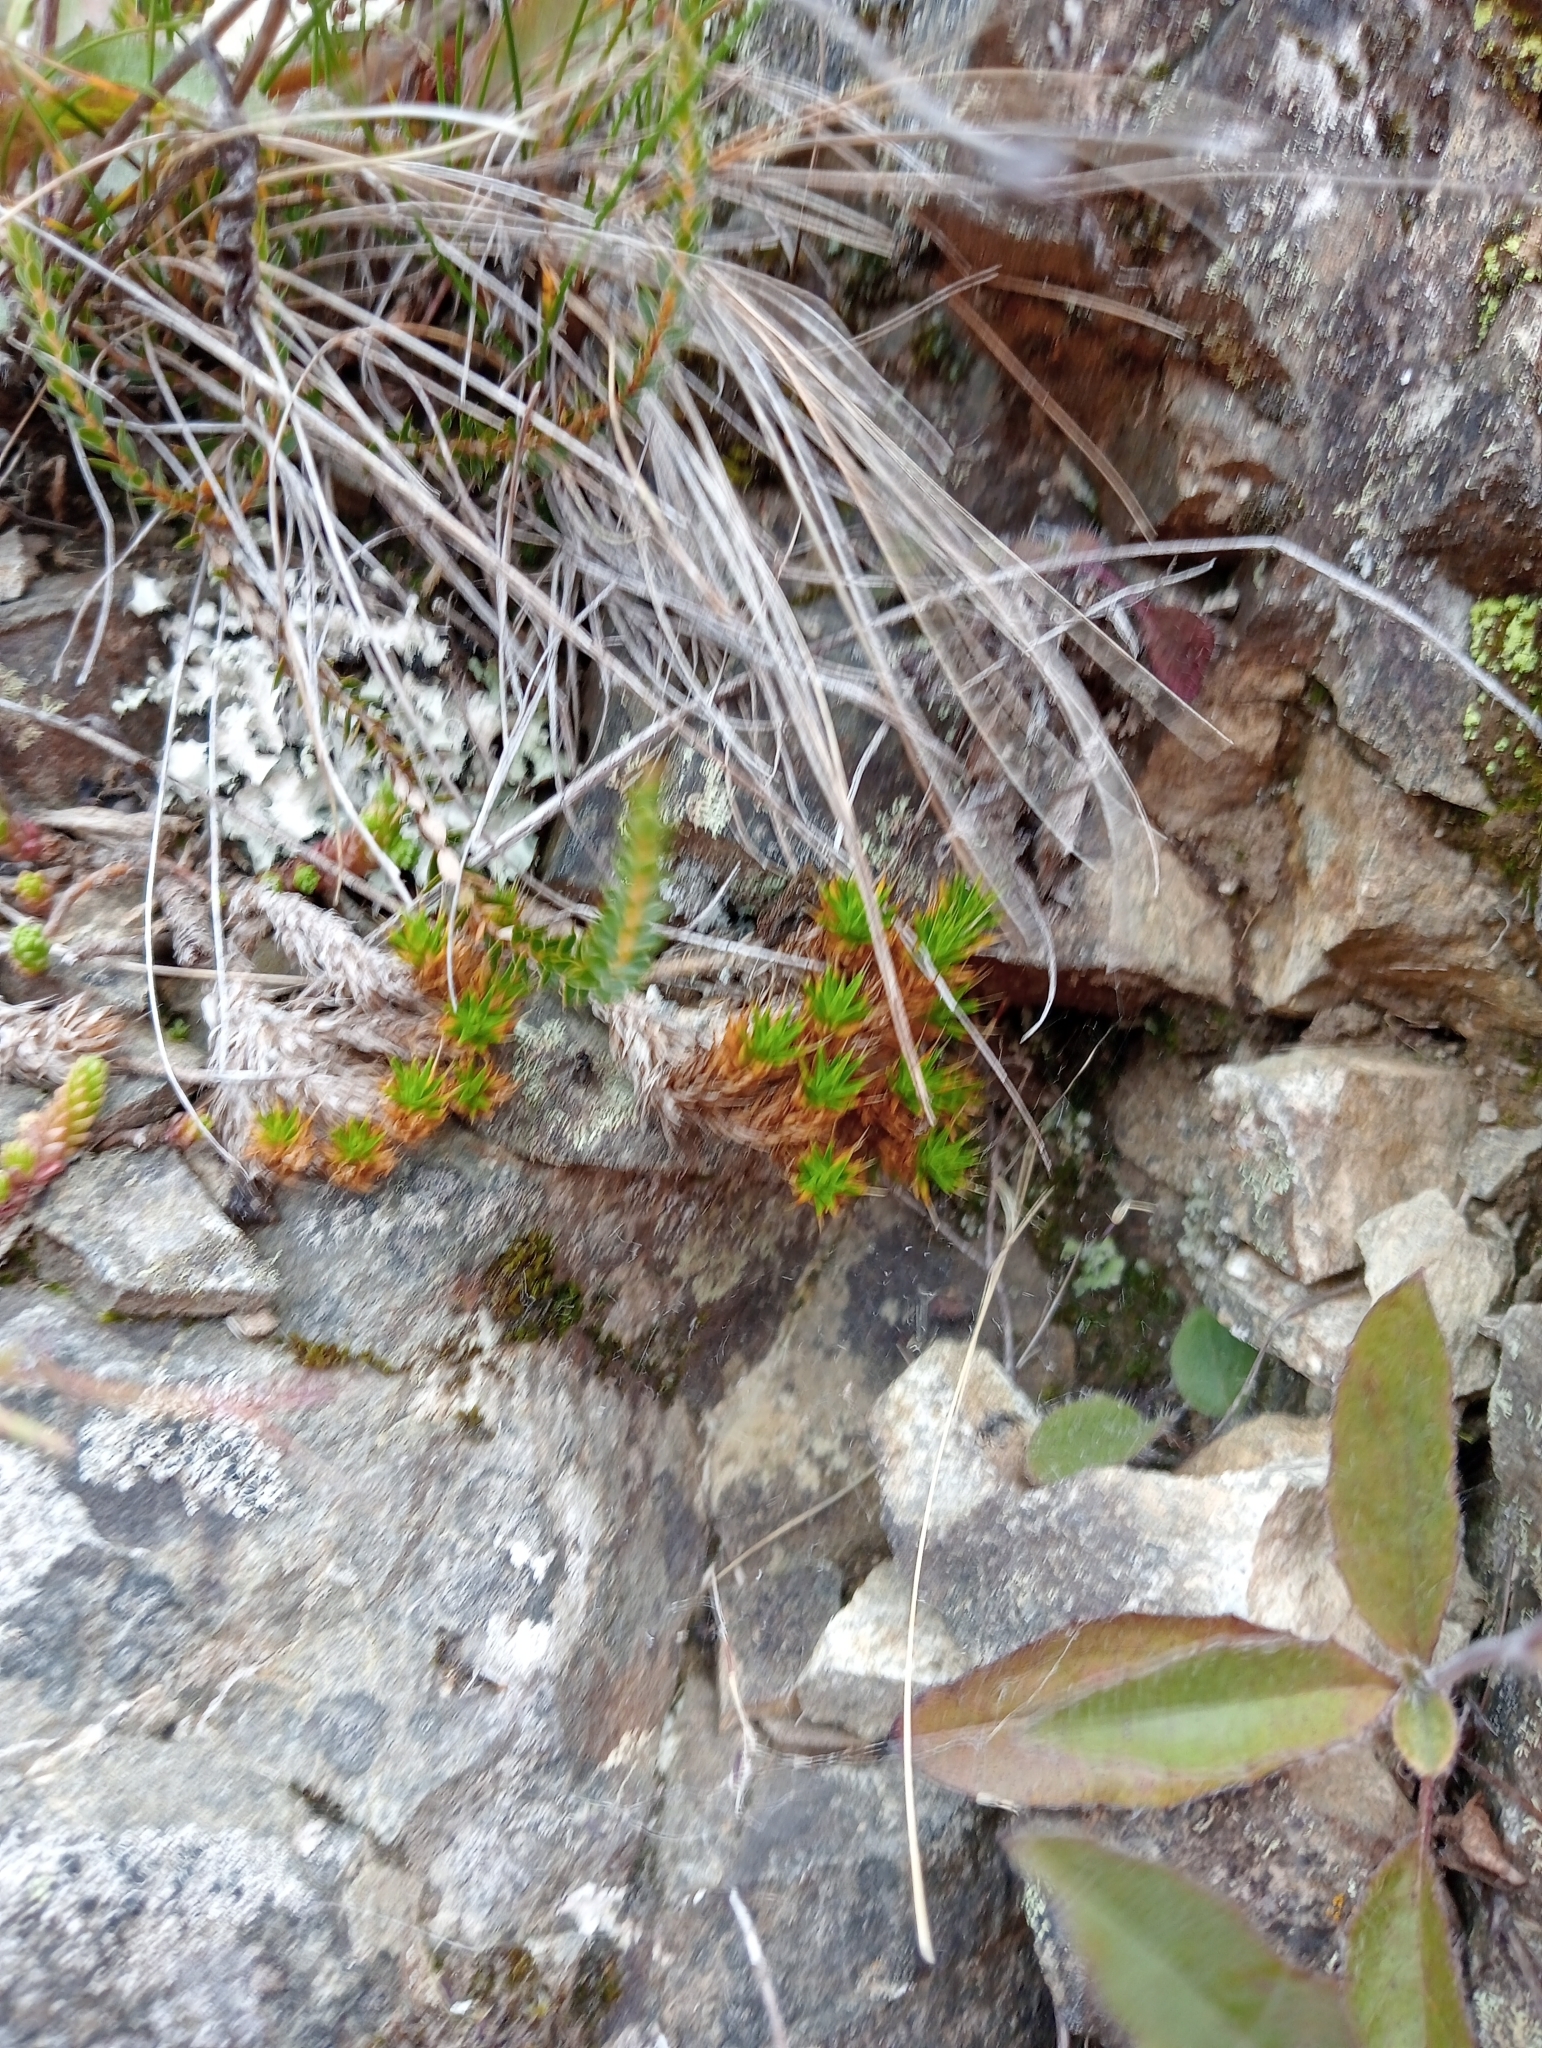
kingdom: Plantae
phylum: Tracheophyta
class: Magnoliopsida
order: Caryophyllales
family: Caryophyllaceae
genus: Colobanthus
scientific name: Colobanthus acicularis
